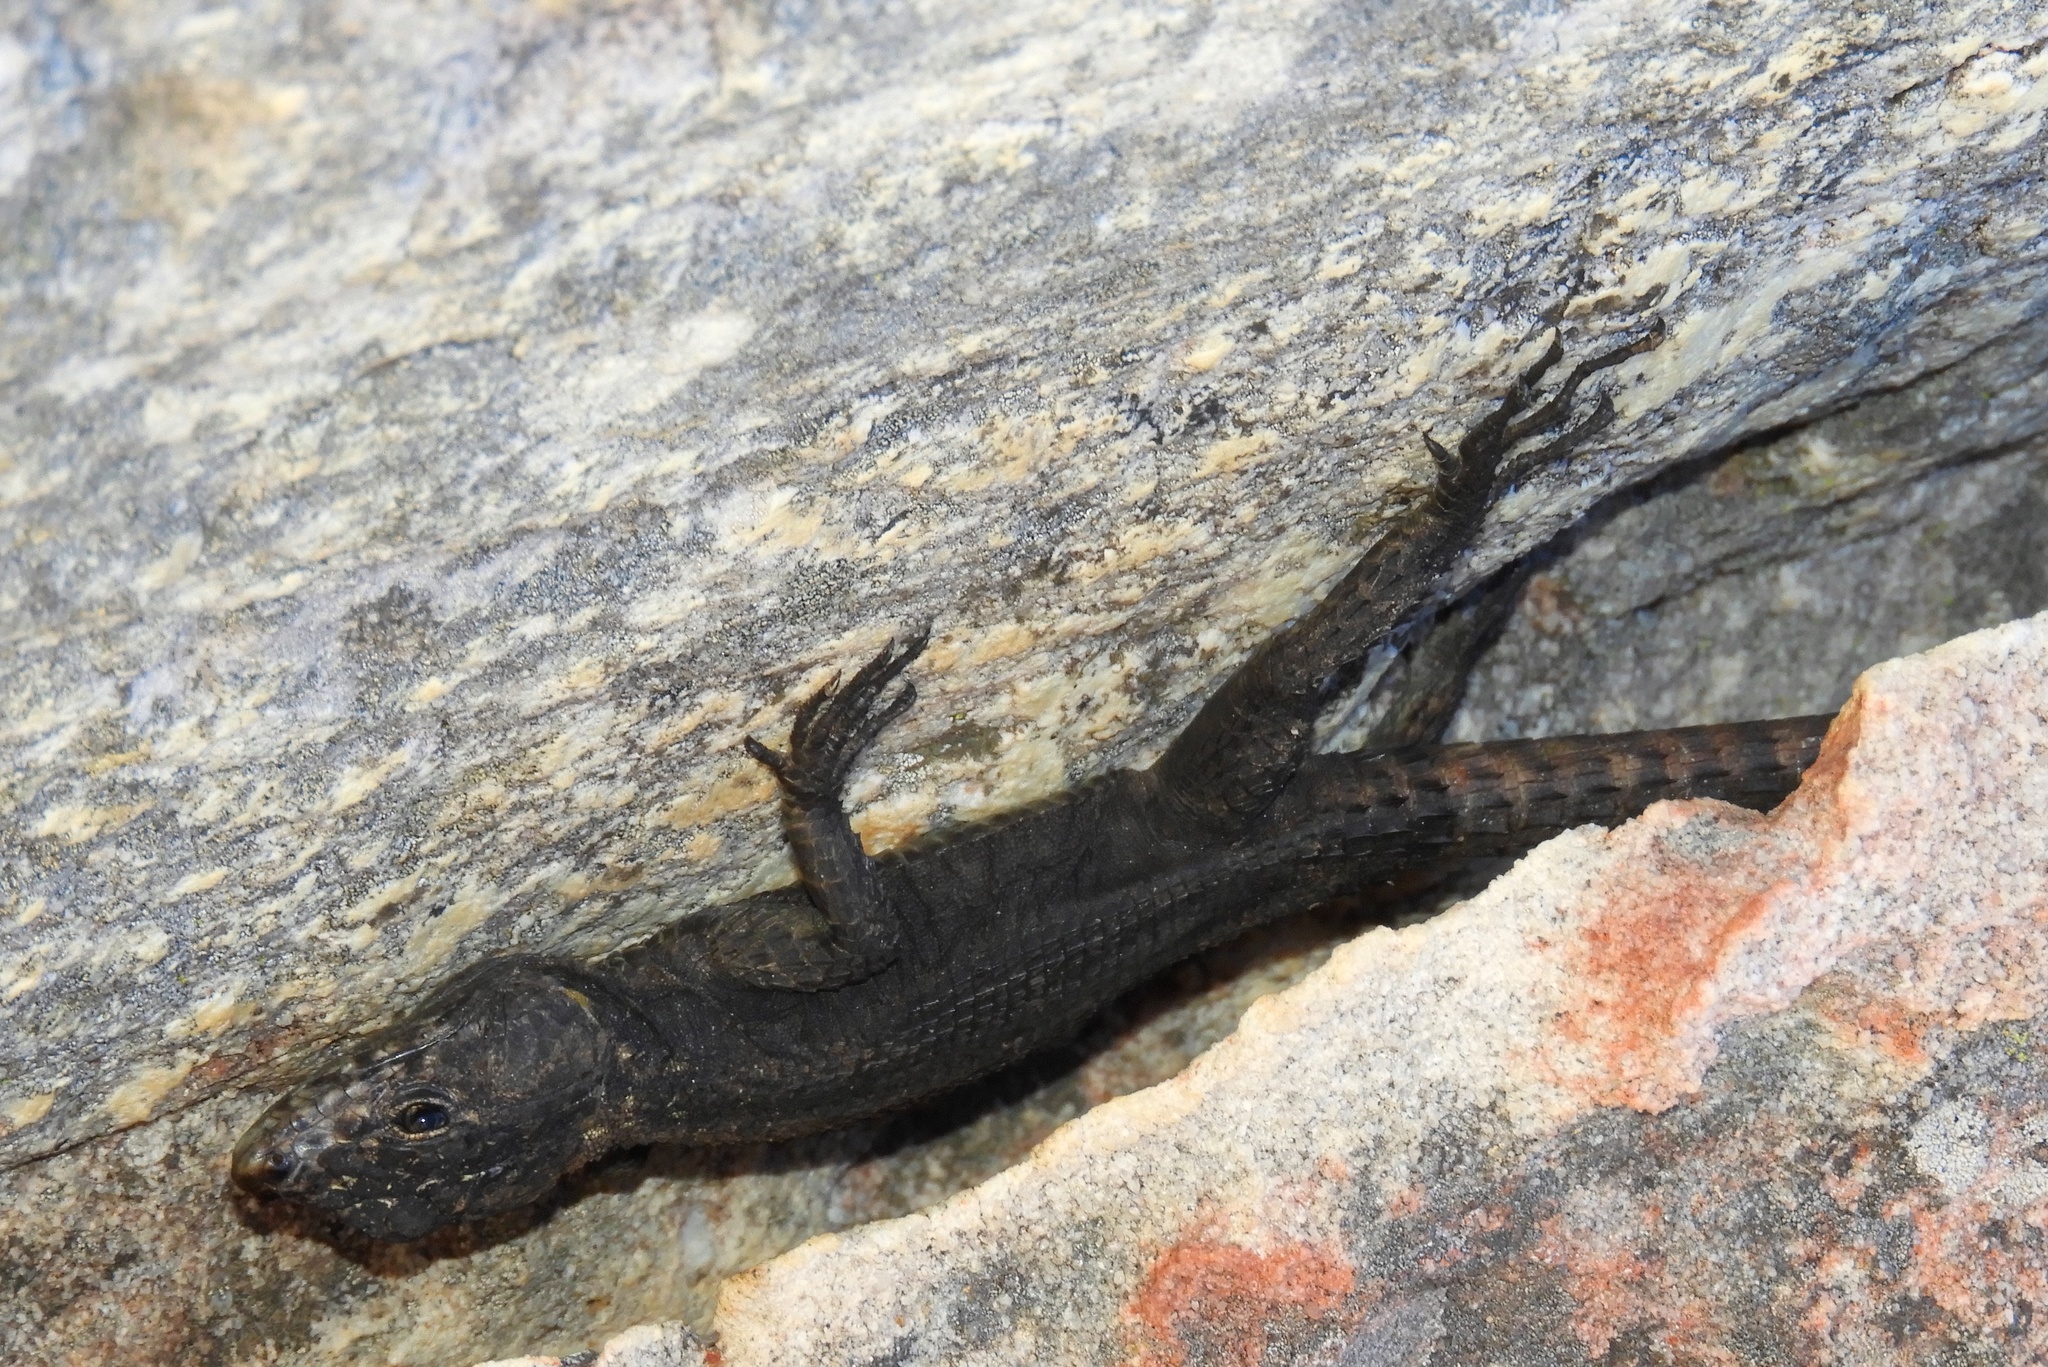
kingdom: Animalia
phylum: Chordata
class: Squamata
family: Cordylidae
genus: Hemicordylus
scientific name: Hemicordylus capensis
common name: Graceful crag lizard
